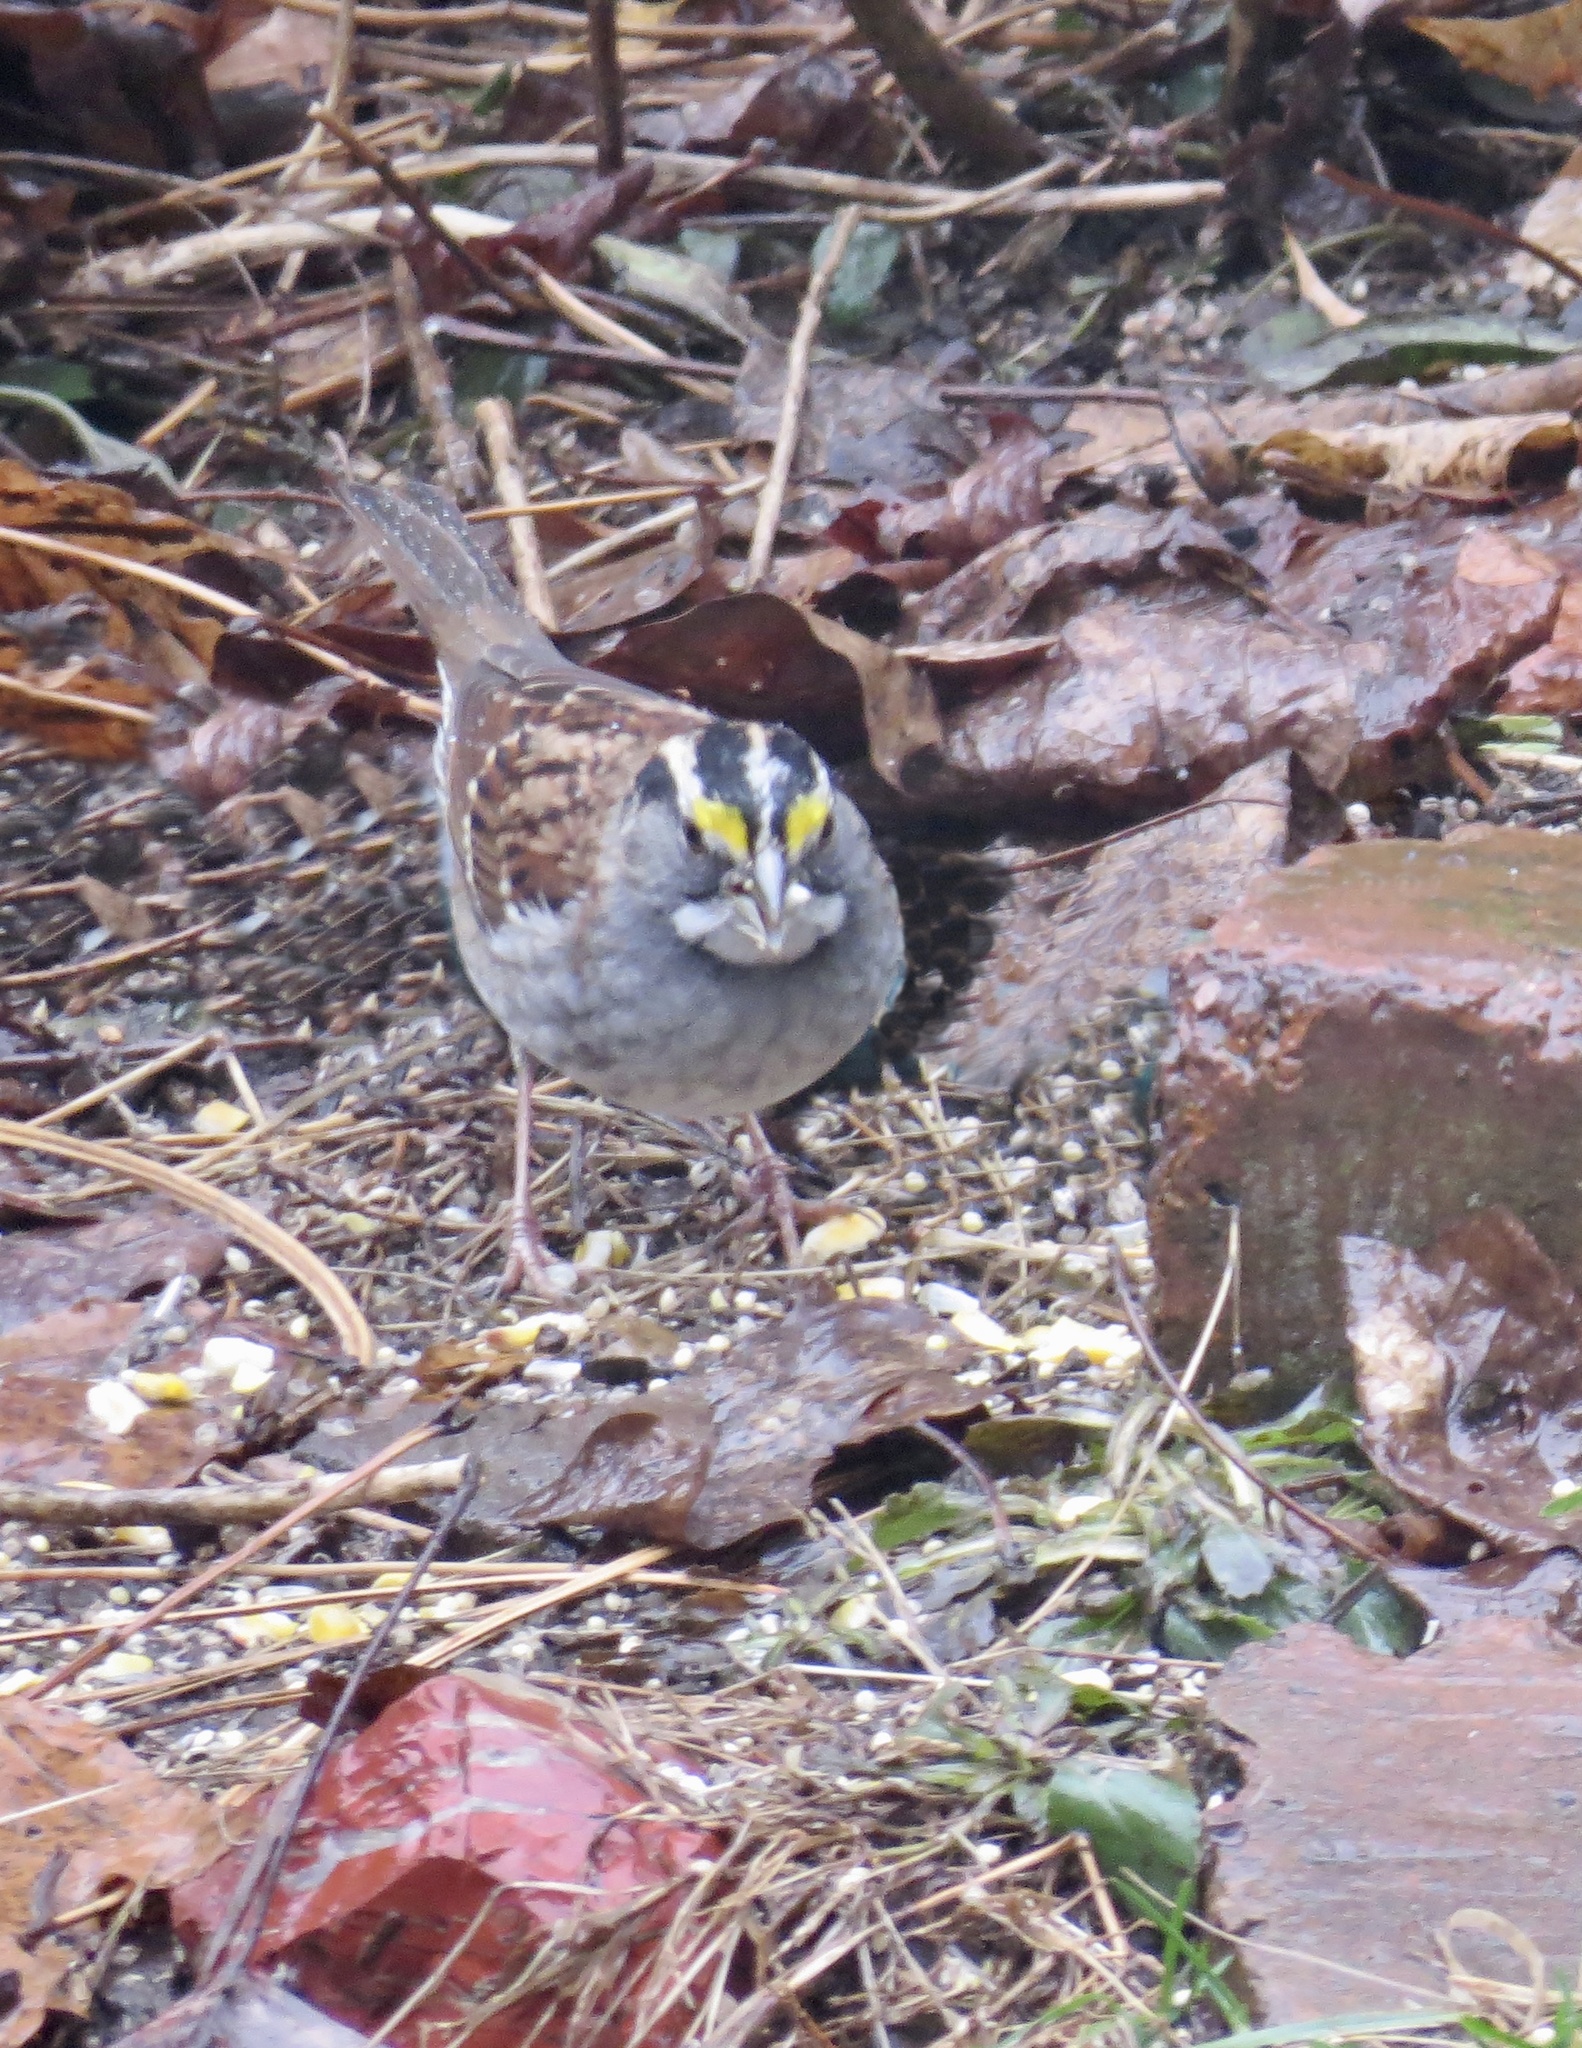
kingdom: Animalia
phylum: Chordata
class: Aves
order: Passeriformes
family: Passerellidae
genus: Zonotrichia
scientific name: Zonotrichia albicollis
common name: White-throated sparrow
